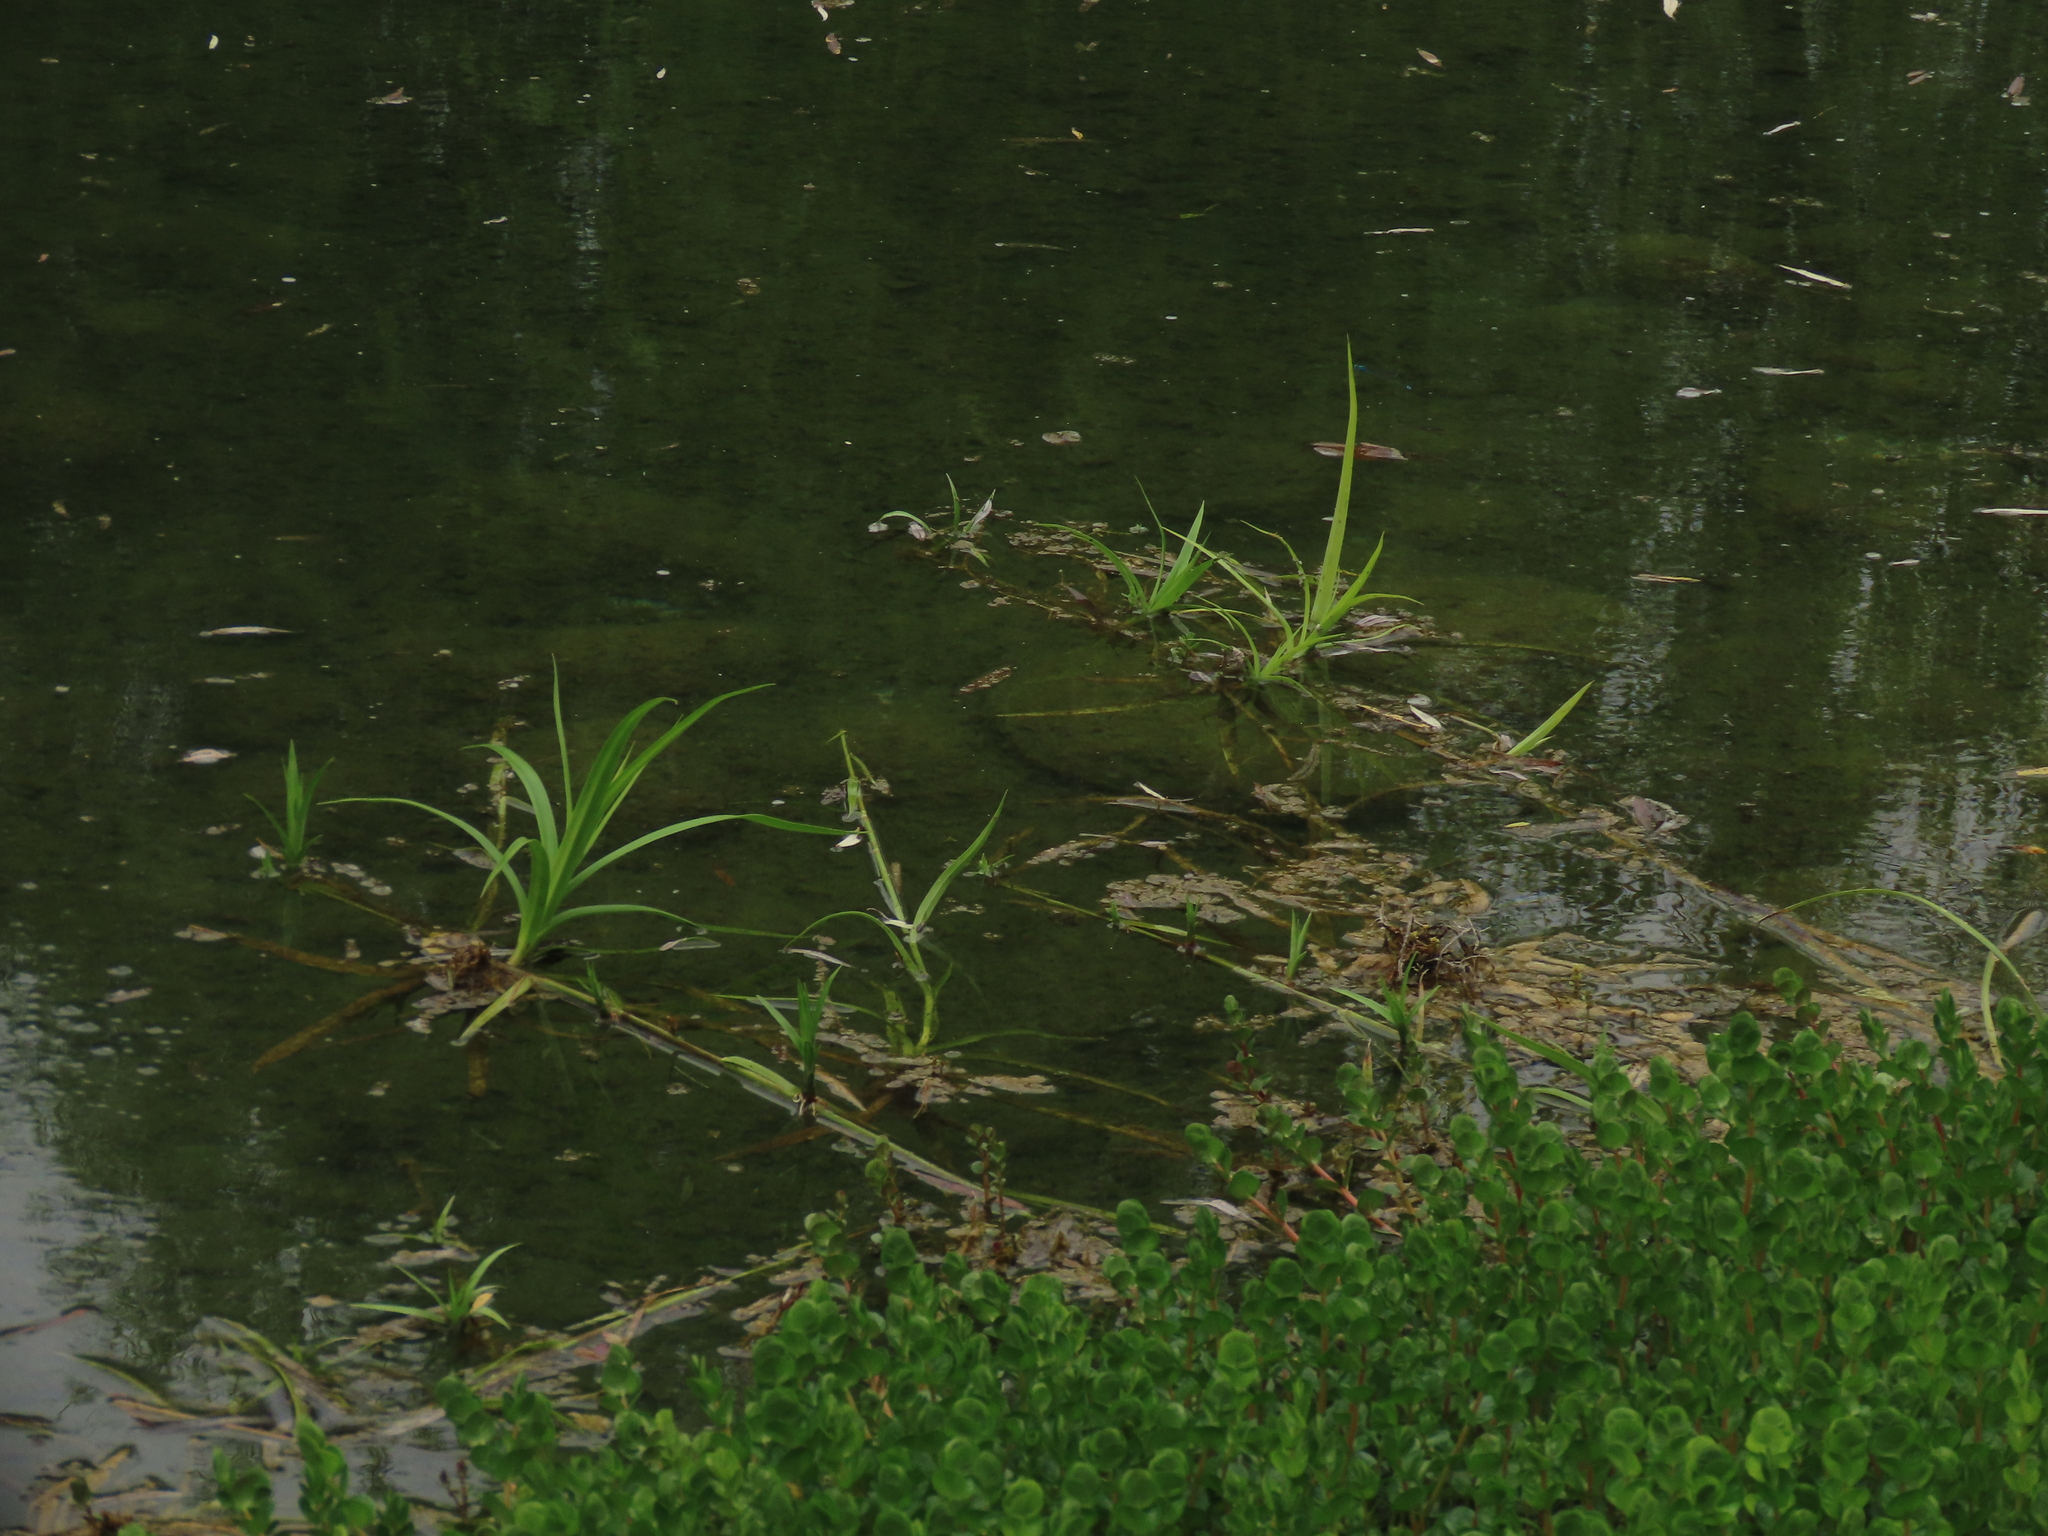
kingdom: Plantae
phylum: Tracheophyta
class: Liliopsida
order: Poales
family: Cyperaceae
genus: Scirpus
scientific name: Scirpus ternatanus
